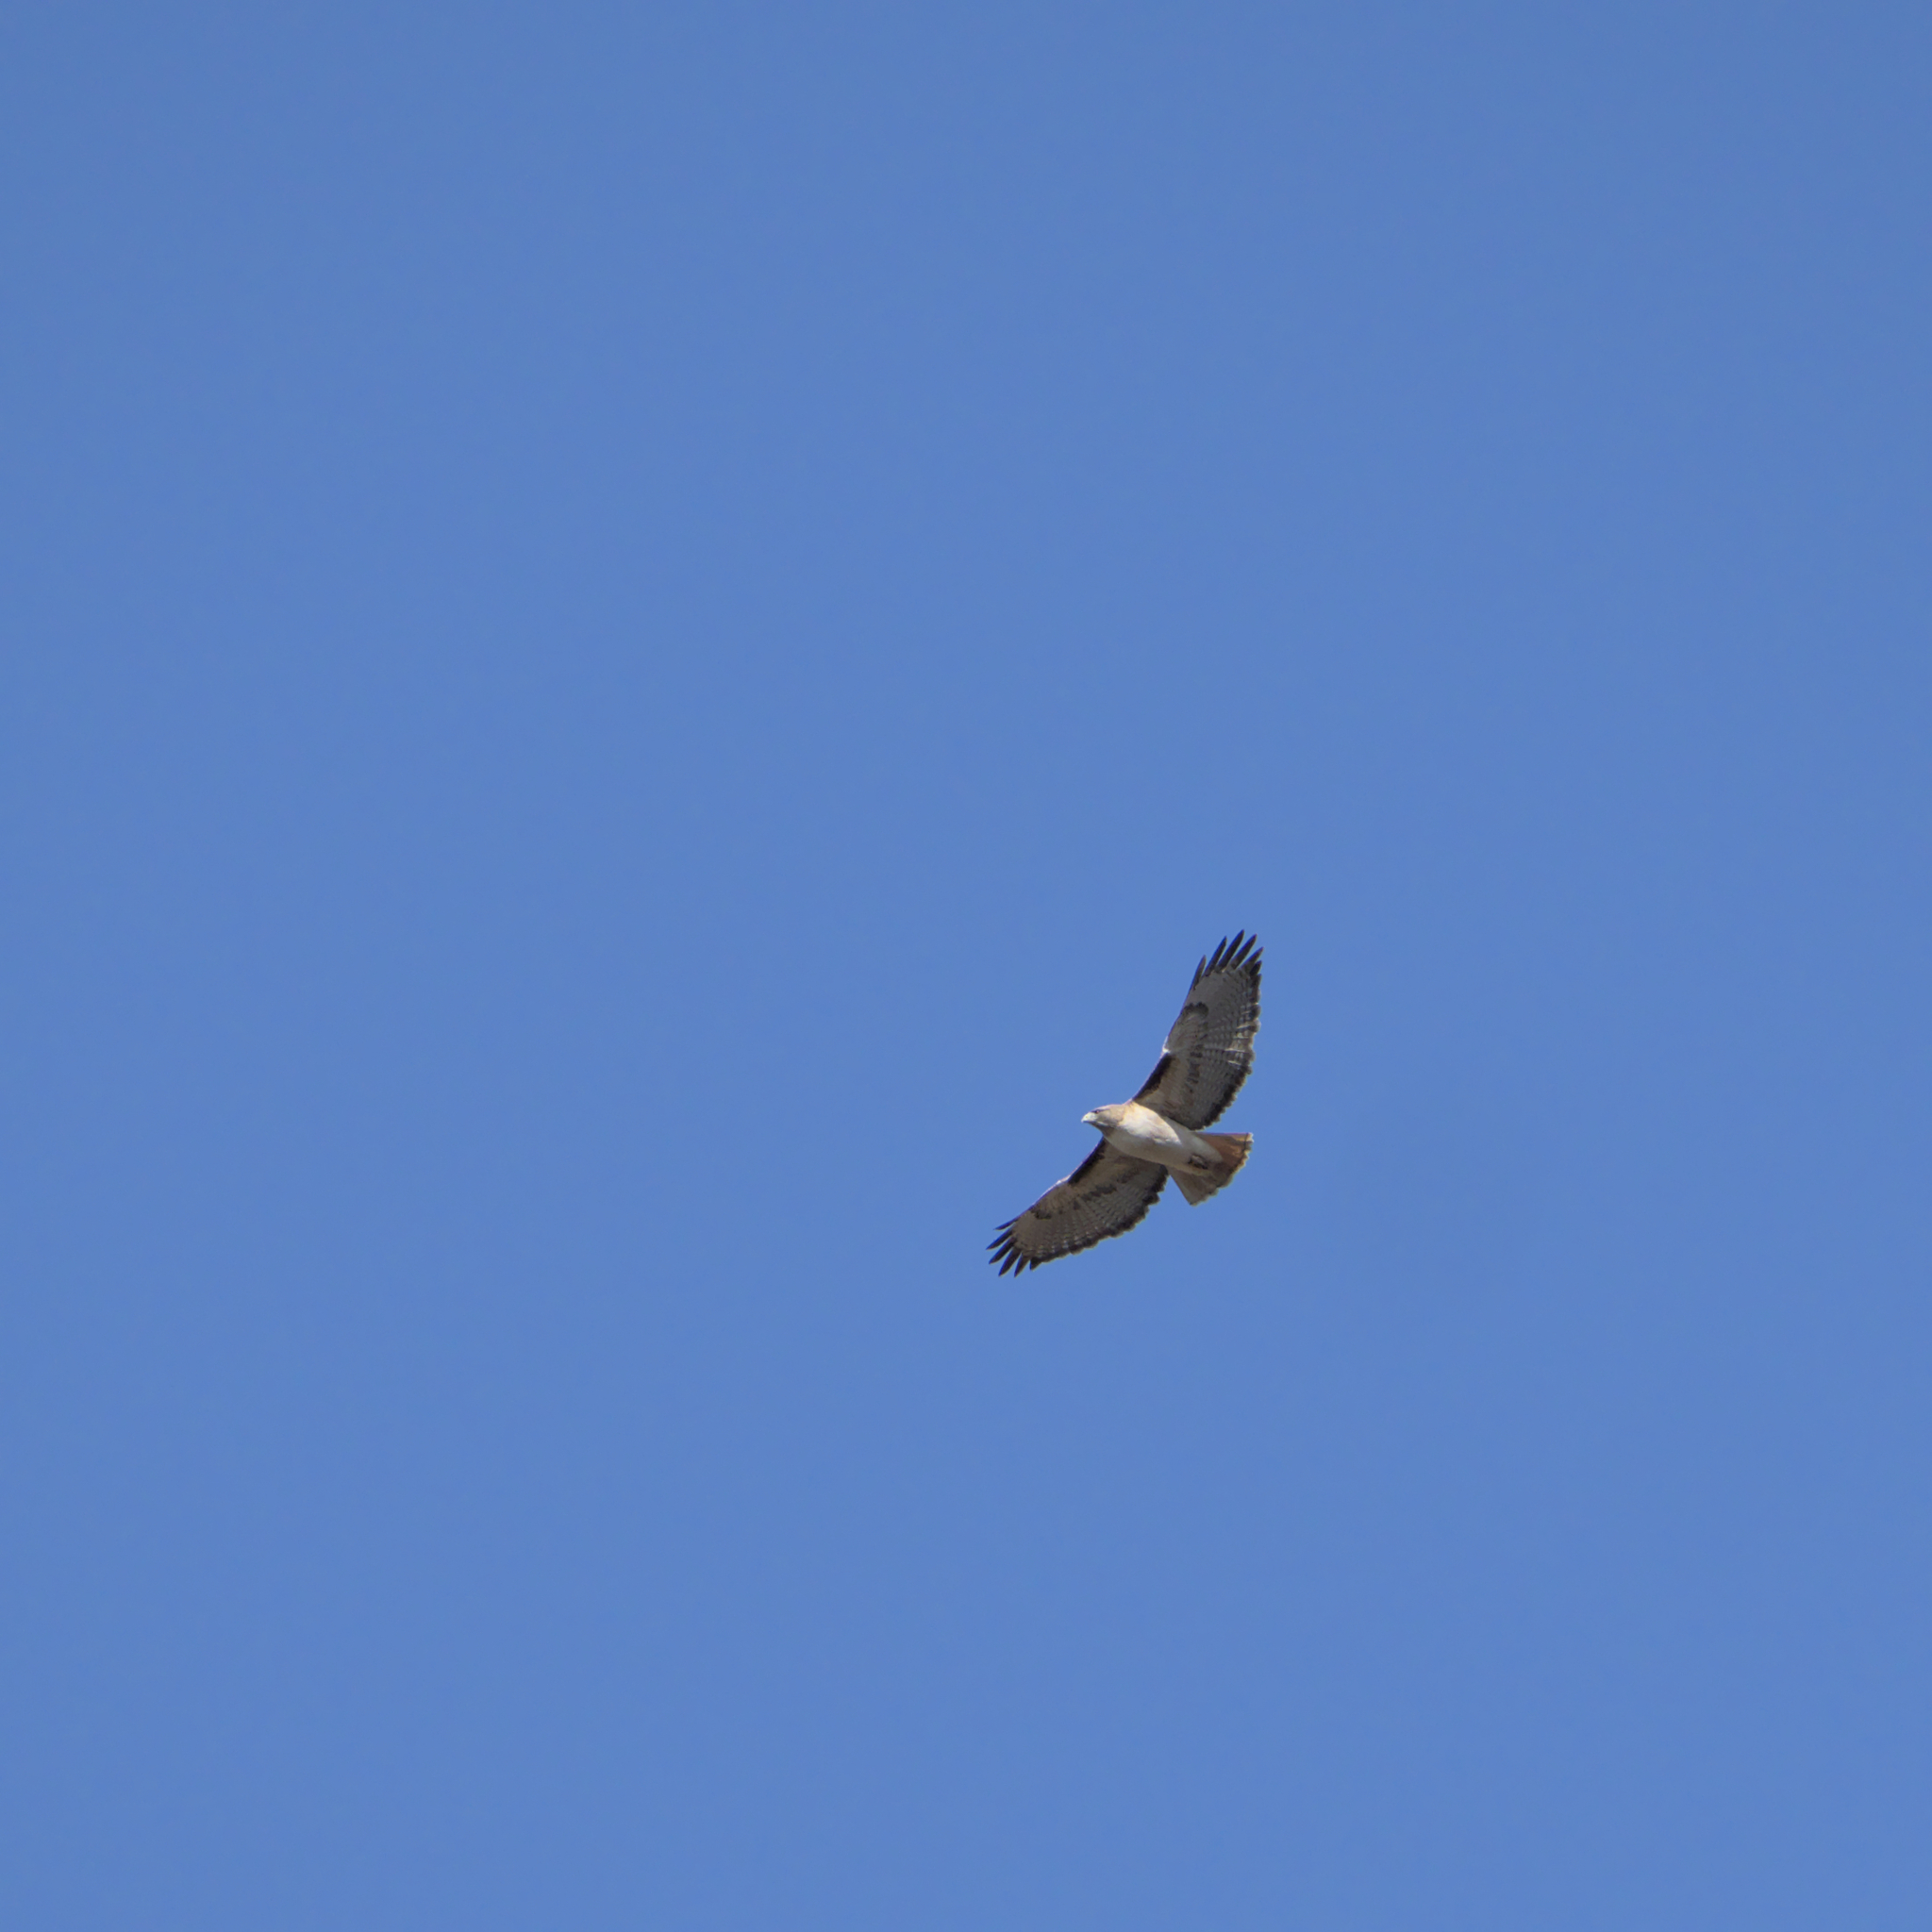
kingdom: Animalia
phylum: Chordata
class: Aves
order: Accipitriformes
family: Accipitridae
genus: Buteo
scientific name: Buteo jamaicensis
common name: Red-tailed hawk
